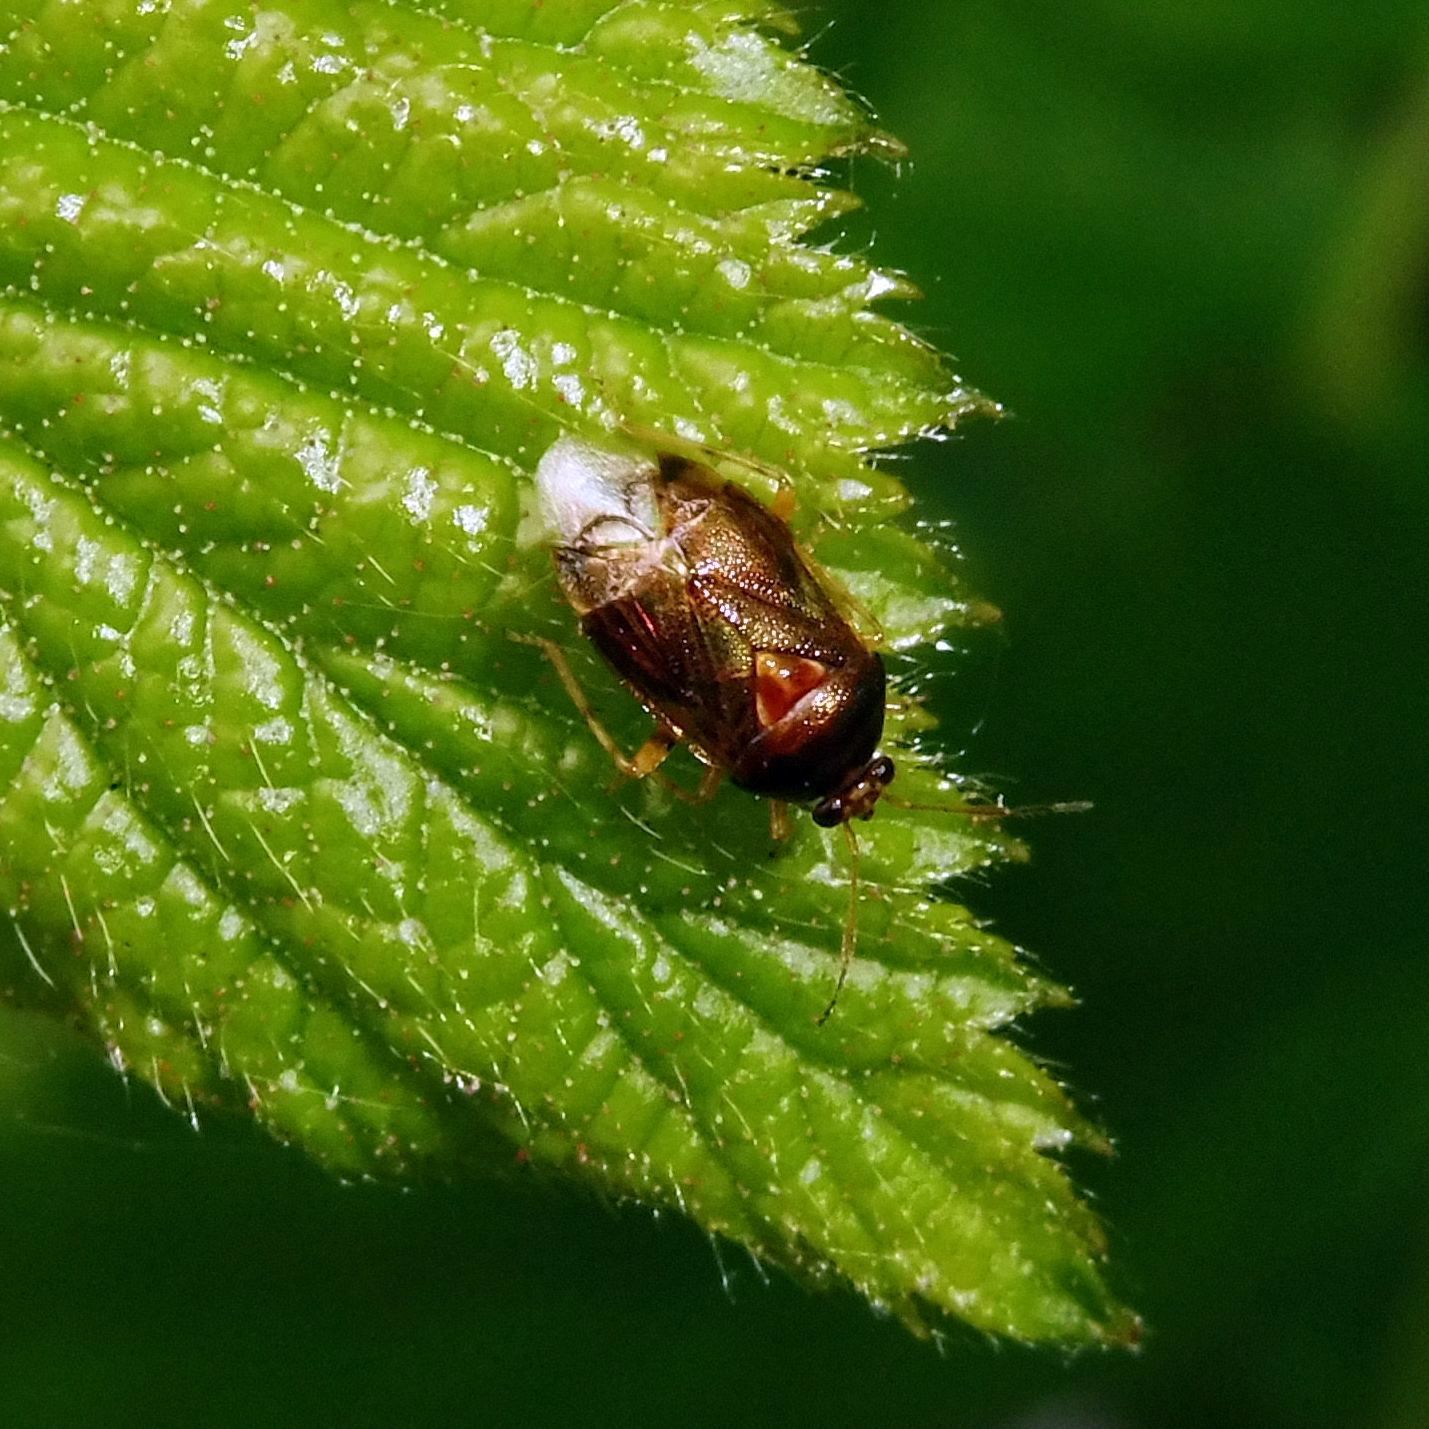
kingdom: Animalia
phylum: Arthropoda
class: Insecta
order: Hemiptera
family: Miridae
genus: Deraeocoris
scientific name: Deraeocoris lutescens
